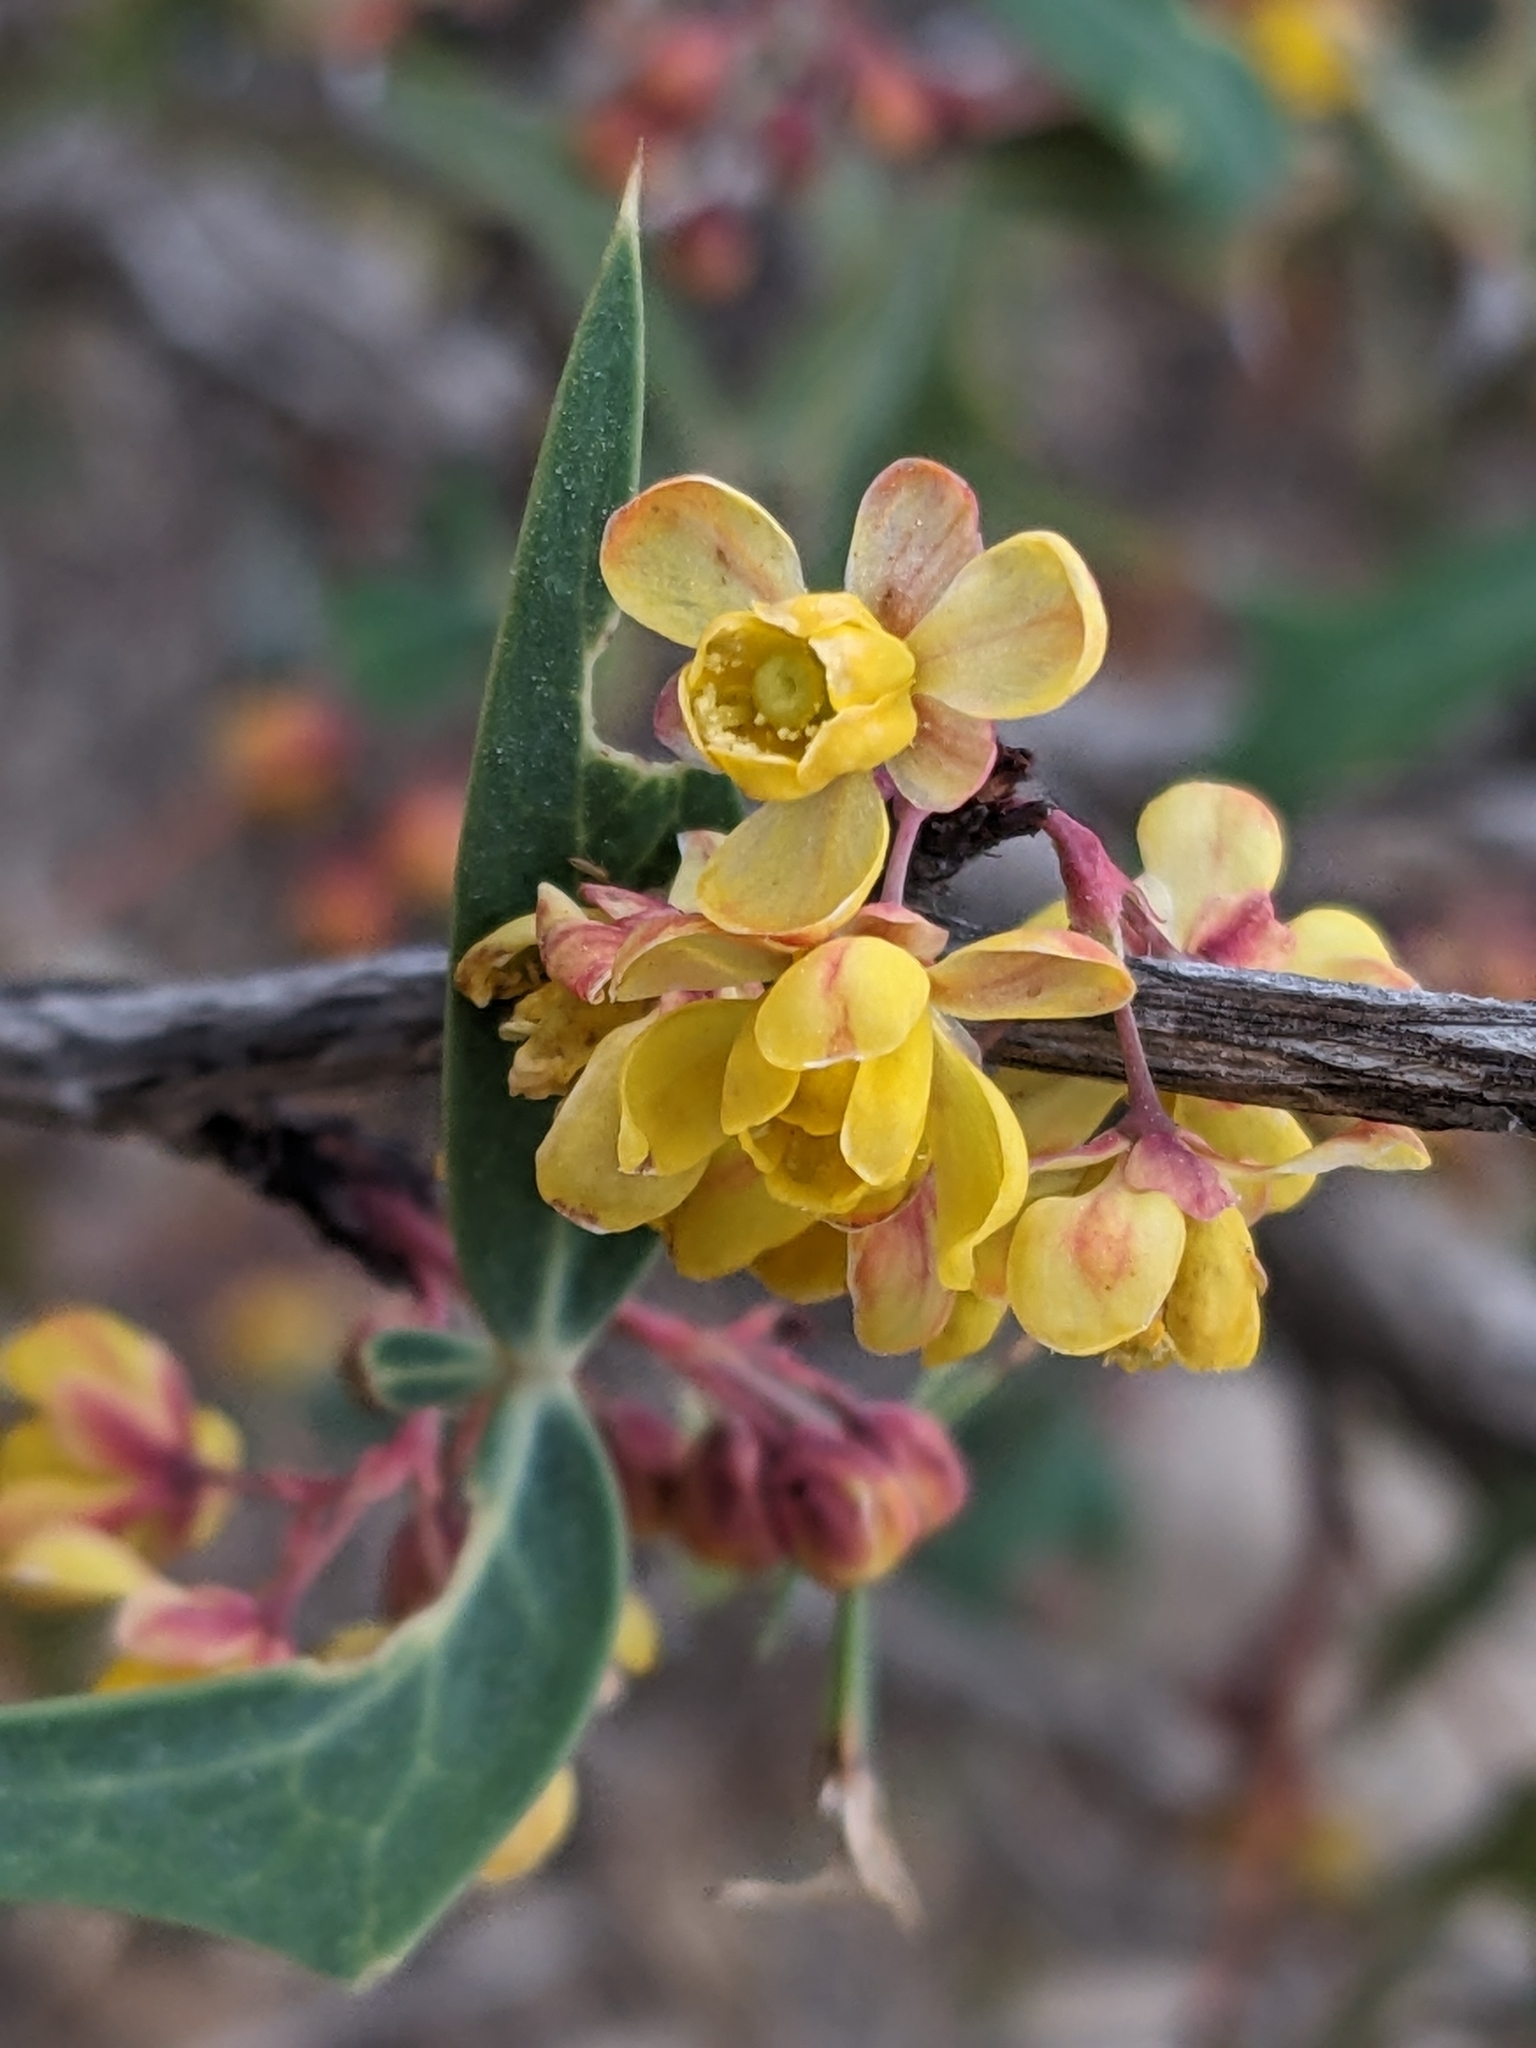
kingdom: Plantae
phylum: Tracheophyta
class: Magnoliopsida
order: Ranunculales
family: Berberidaceae
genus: Alloberberis
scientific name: Alloberberis trifoliolata
